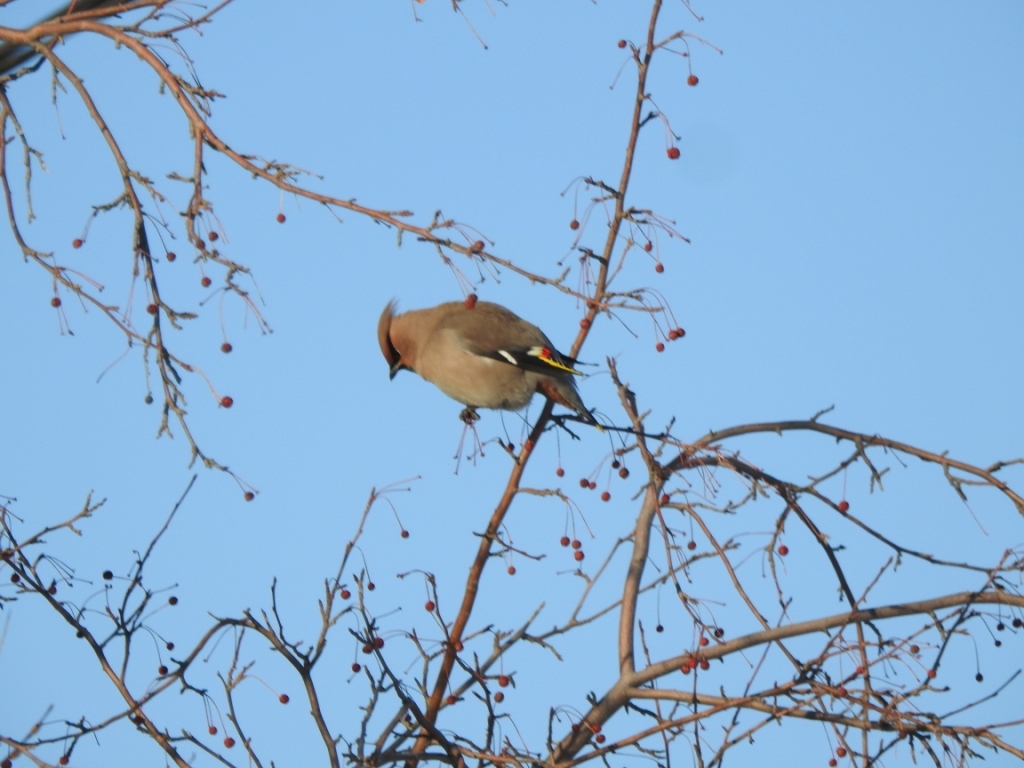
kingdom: Animalia
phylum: Chordata
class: Aves
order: Passeriformes
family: Bombycillidae
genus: Bombycilla
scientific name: Bombycilla garrulus
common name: Bohemian waxwing
